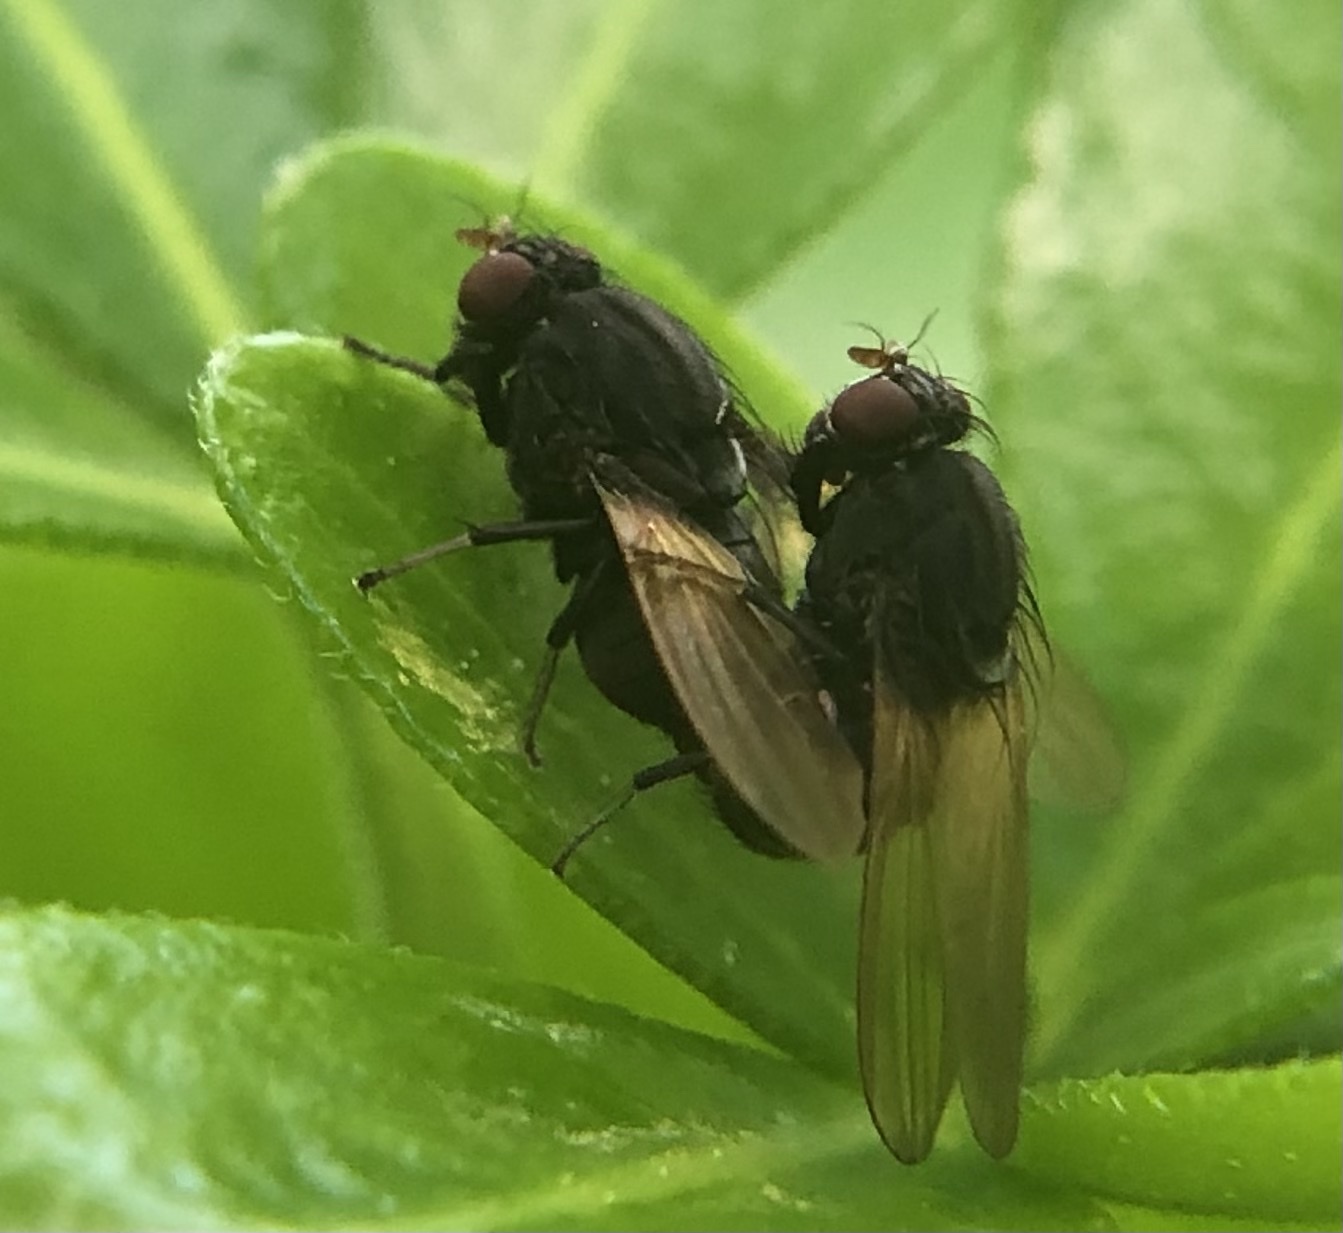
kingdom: Animalia
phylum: Arthropoda
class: Insecta
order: Diptera
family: Lauxaniidae
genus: Minettia
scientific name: Minettia longipennis
